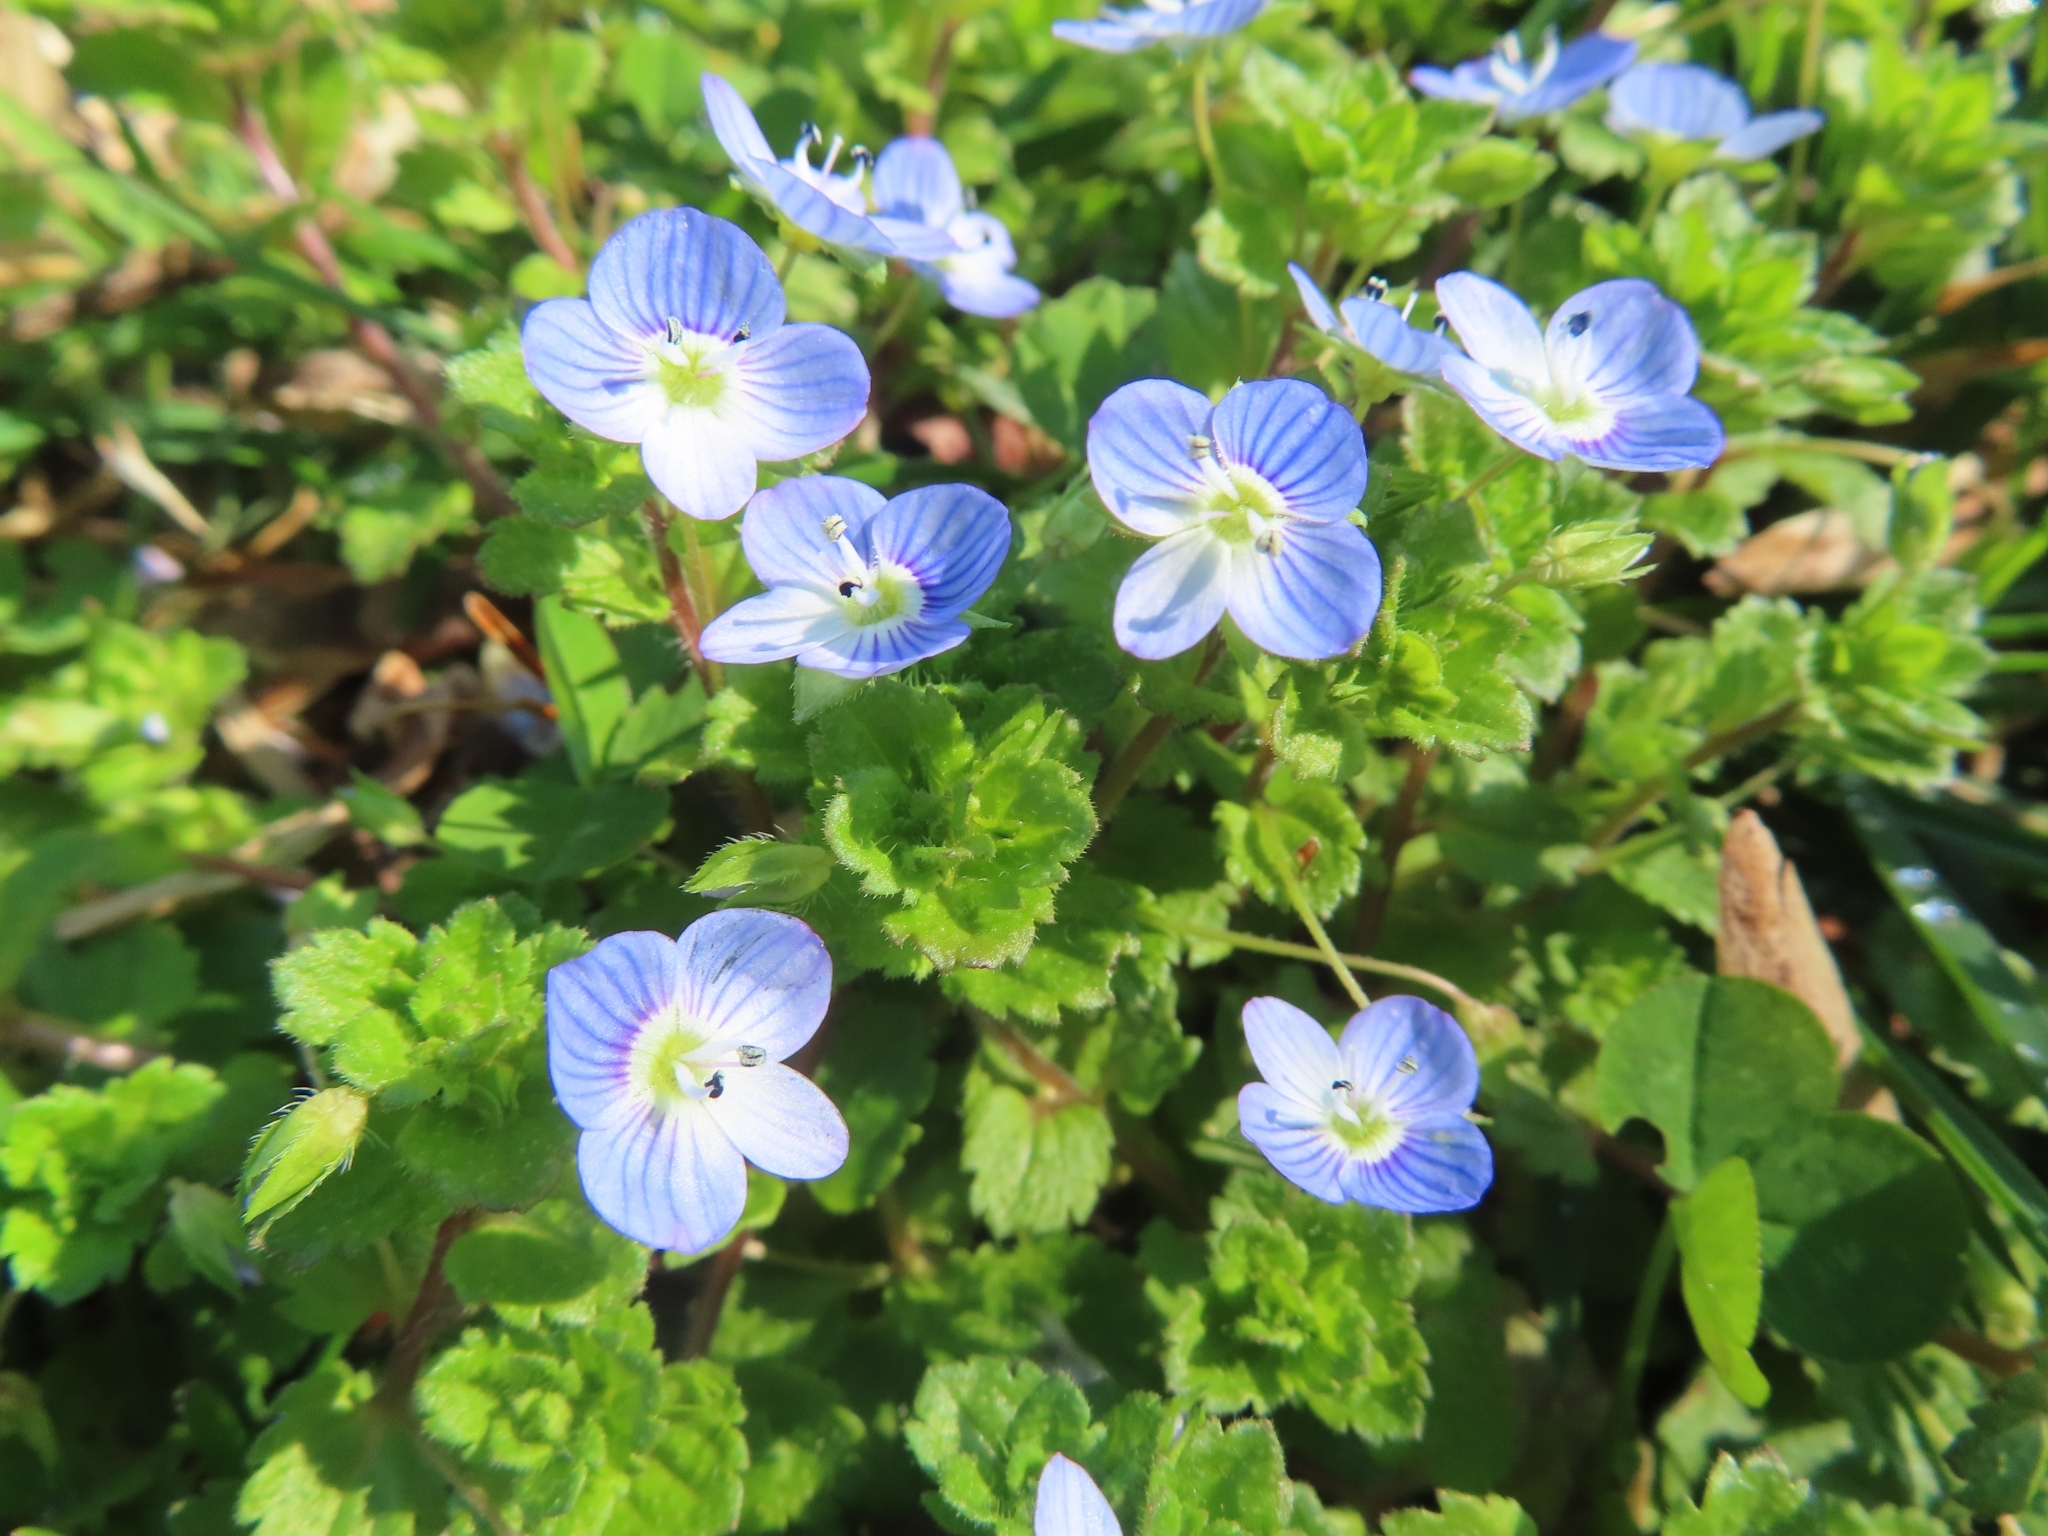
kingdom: Plantae
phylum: Tracheophyta
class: Magnoliopsida
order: Lamiales
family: Plantaginaceae
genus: Veronica
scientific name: Veronica persica
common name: Common field-speedwell
